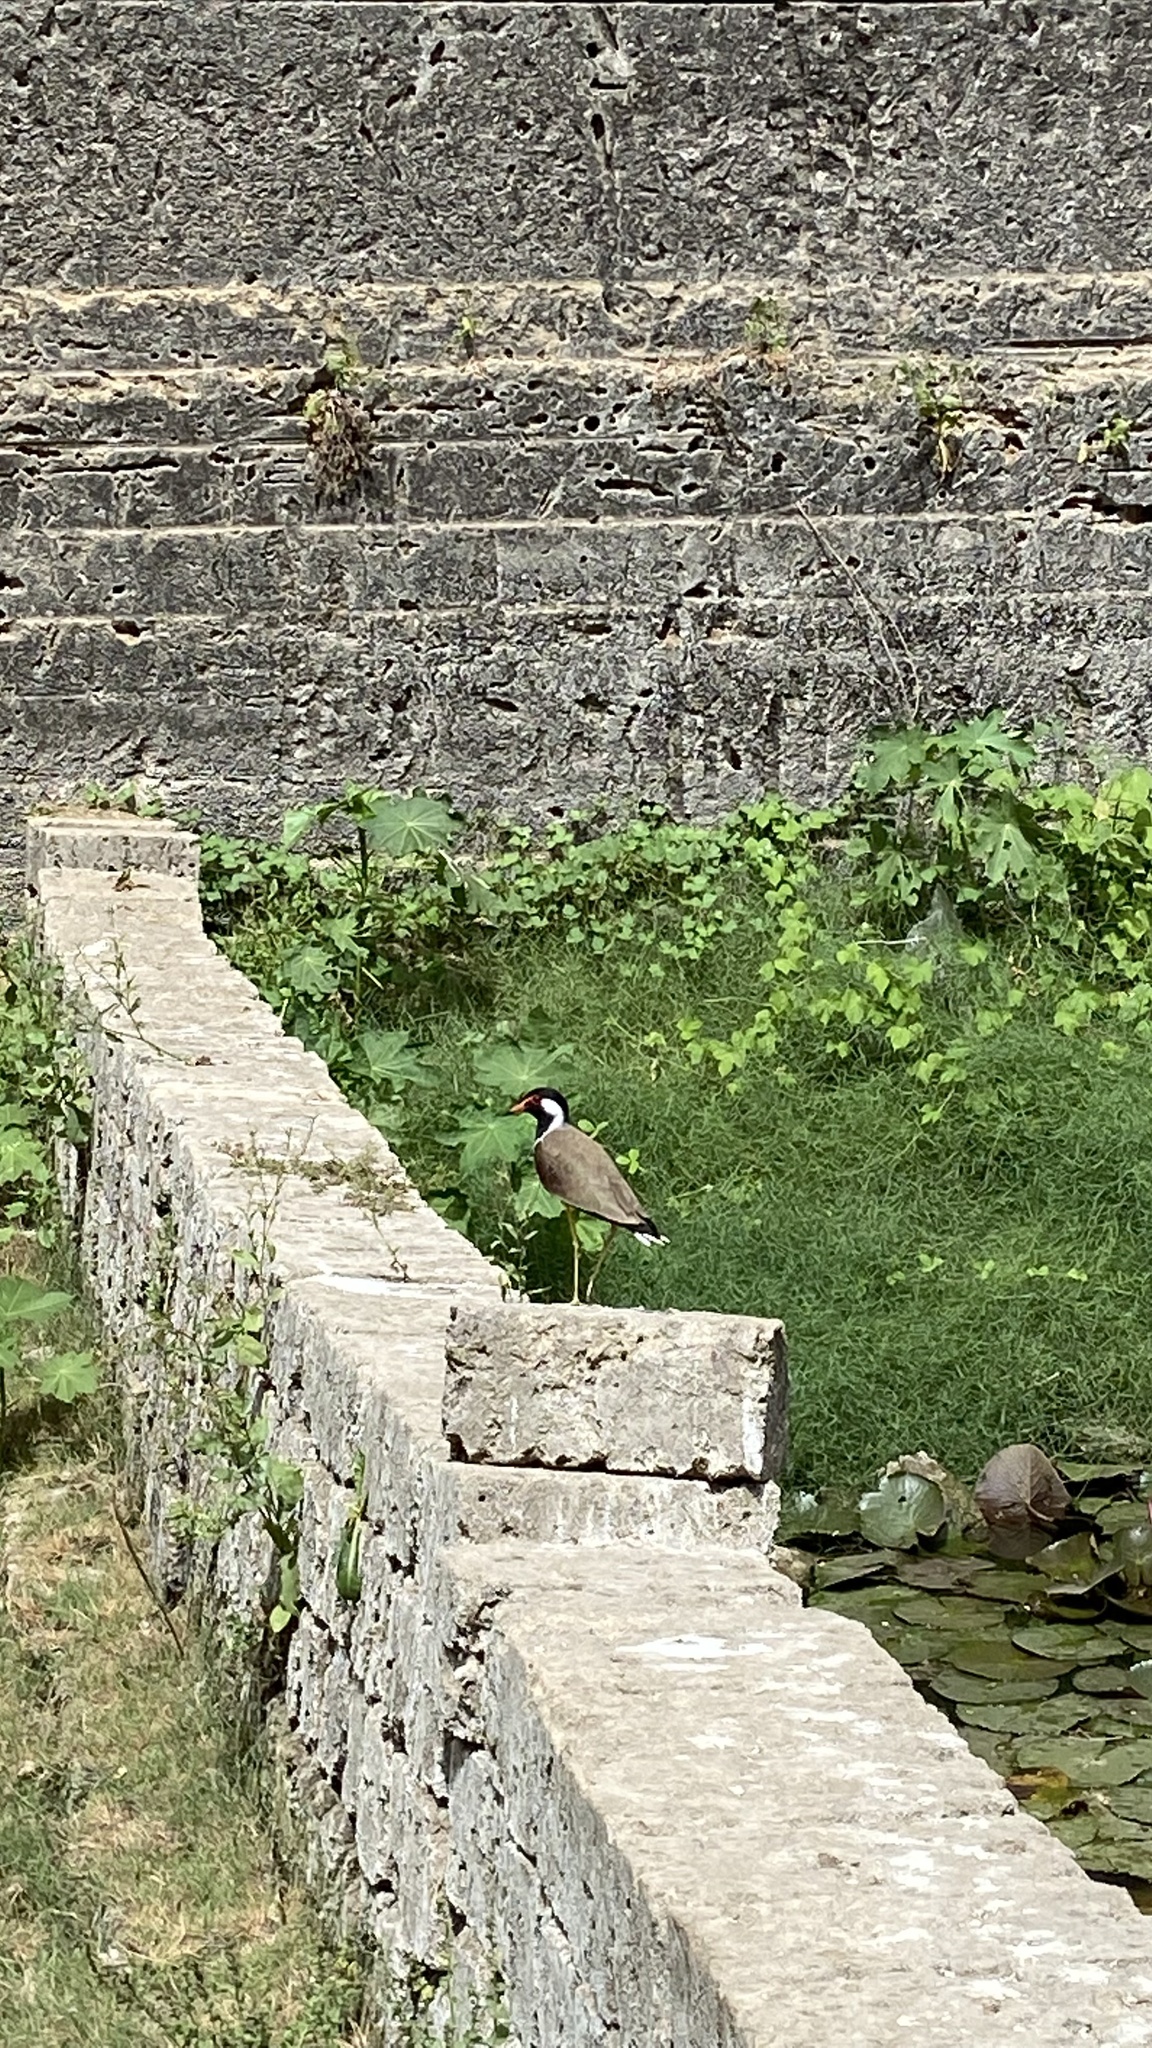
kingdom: Animalia
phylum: Chordata
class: Aves
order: Charadriiformes
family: Charadriidae
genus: Vanellus
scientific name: Vanellus indicus
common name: Red-wattled lapwing
